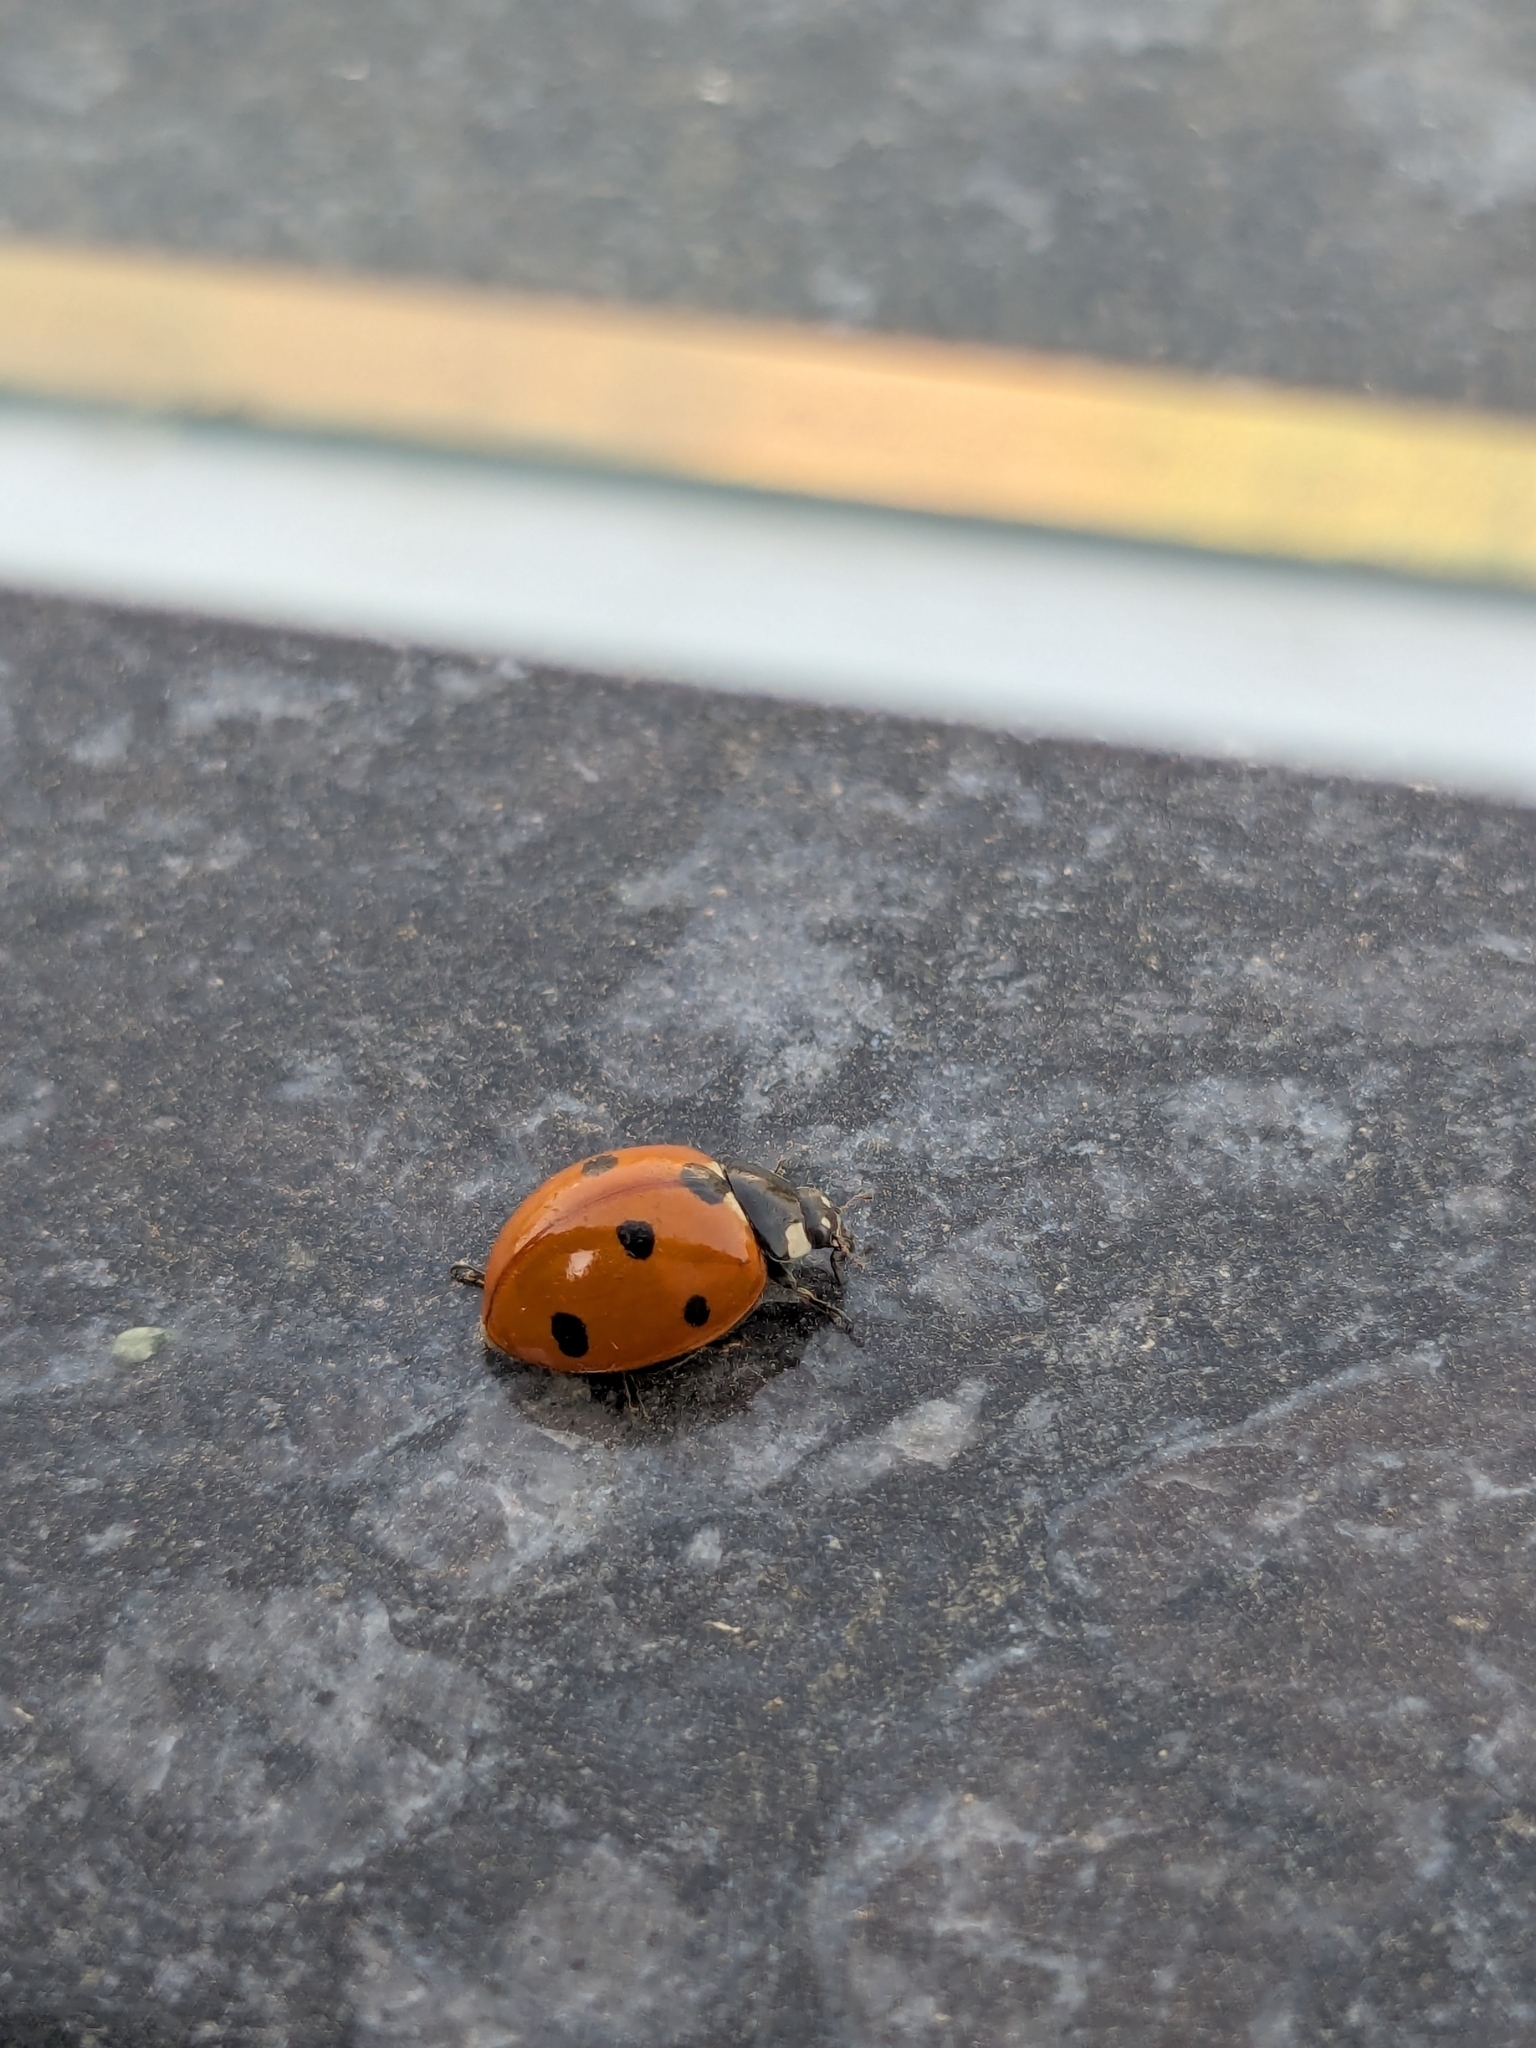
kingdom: Animalia
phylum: Arthropoda
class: Insecta
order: Coleoptera
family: Coccinellidae
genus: Coccinella
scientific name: Coccinella septempunctata
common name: Sevenspotted lady beetle
